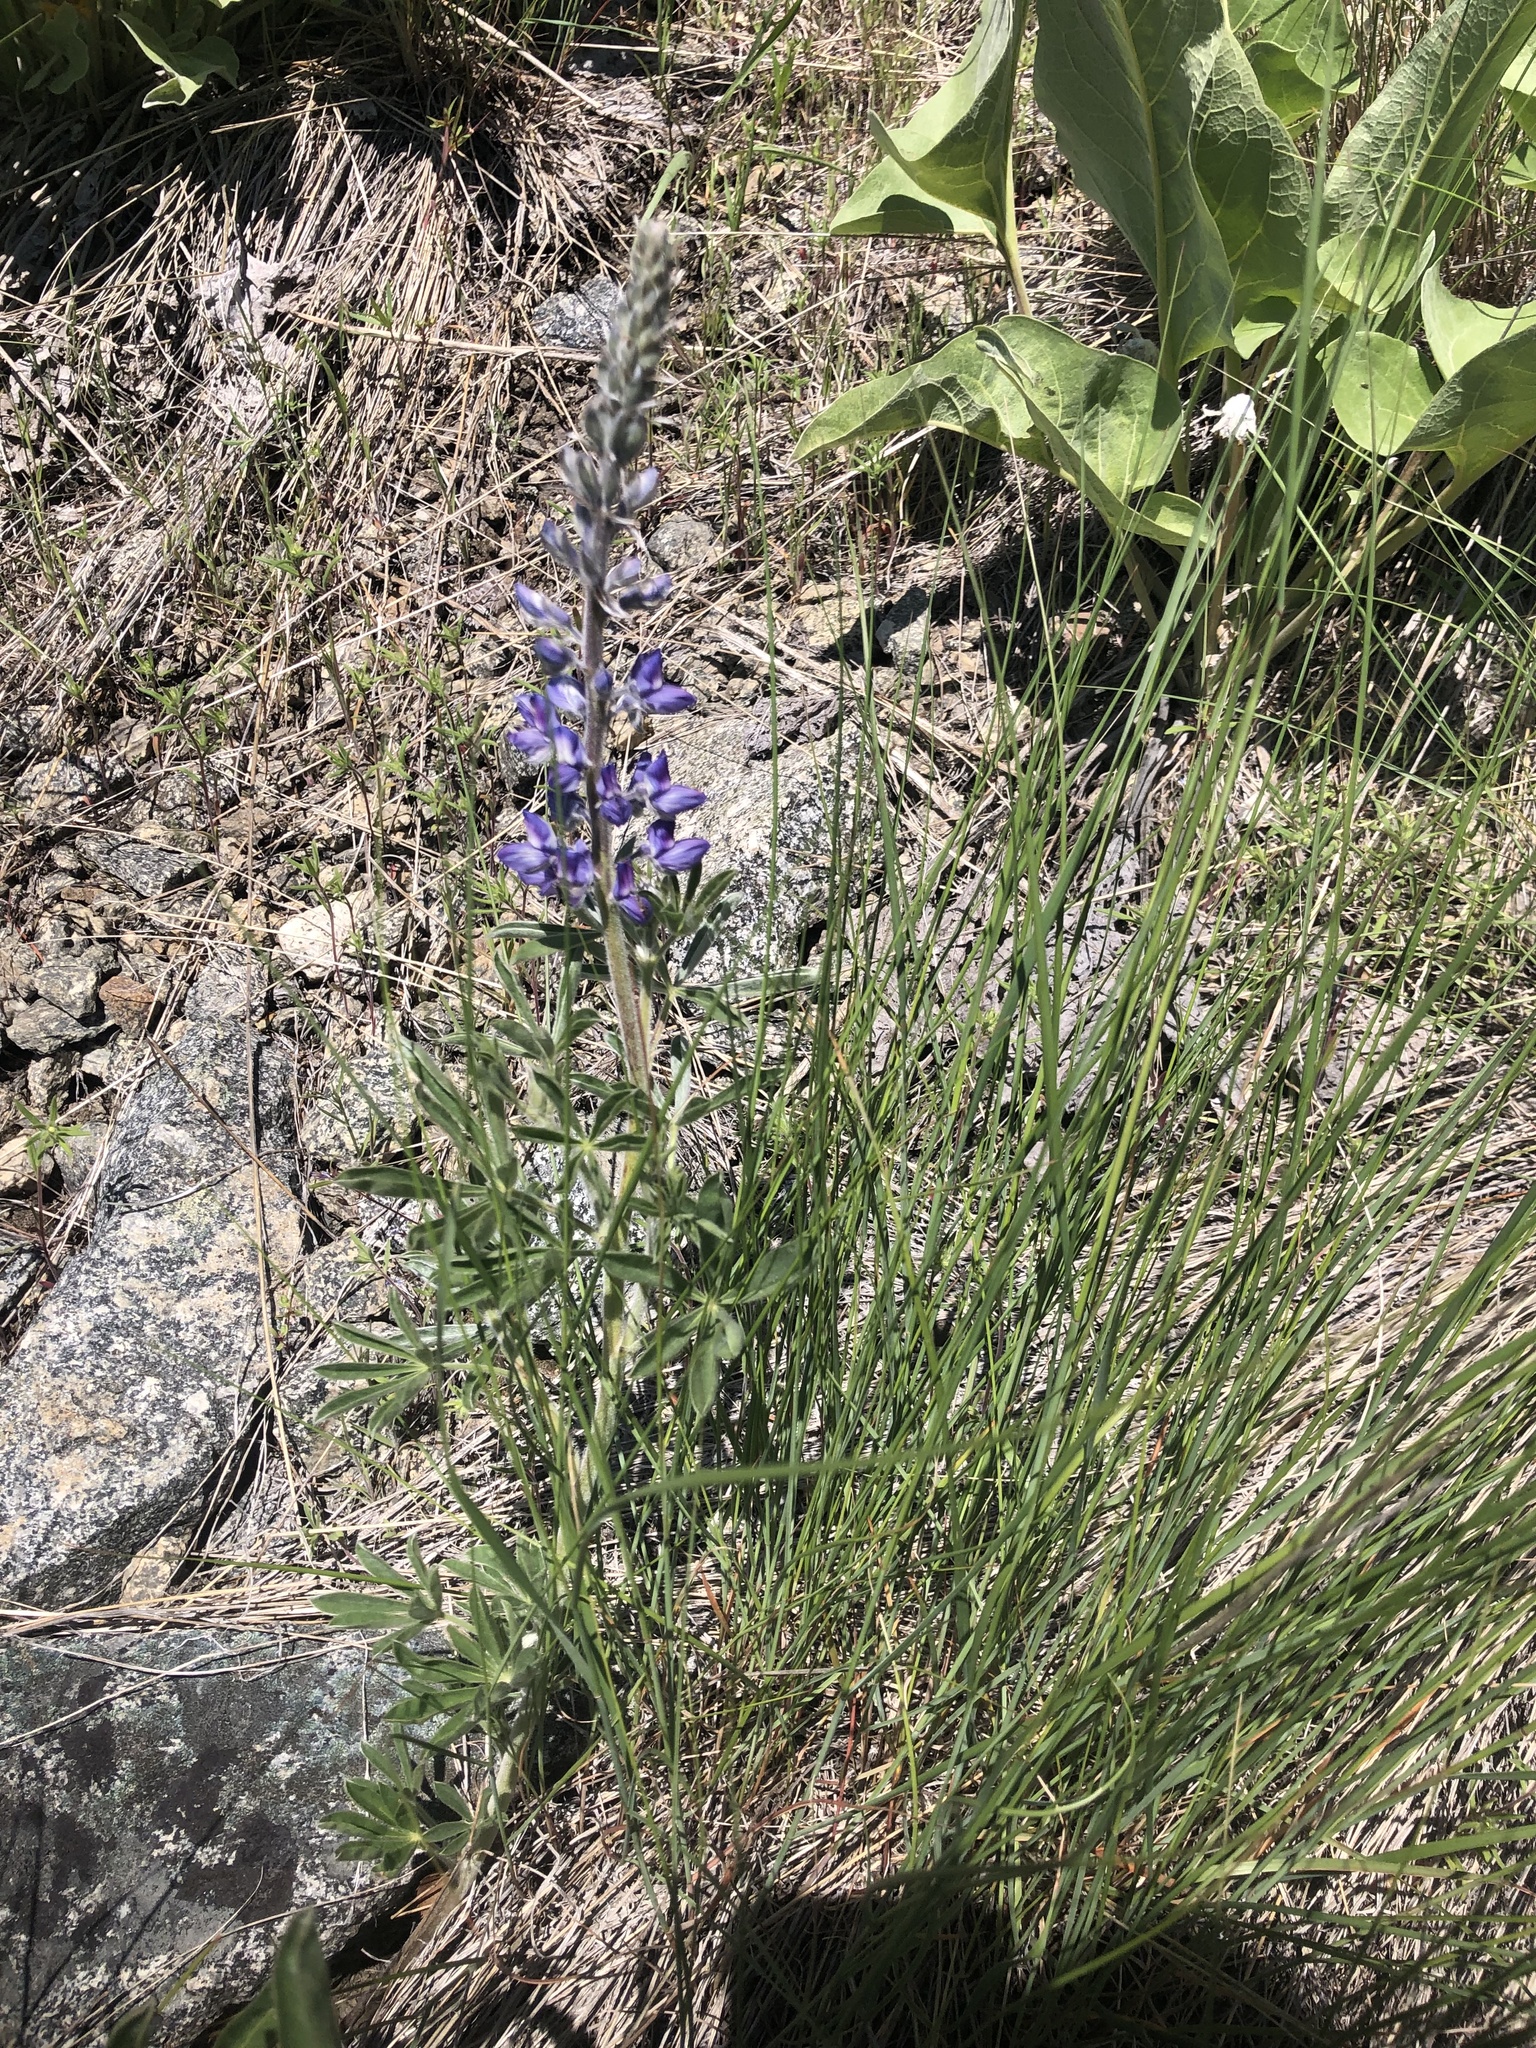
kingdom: Plantae
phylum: Tracheophyta
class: Magnoliopsida
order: Fabales
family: Fabaceae
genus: Lupinus
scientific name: Lupinus sericeus
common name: Silky lupine
